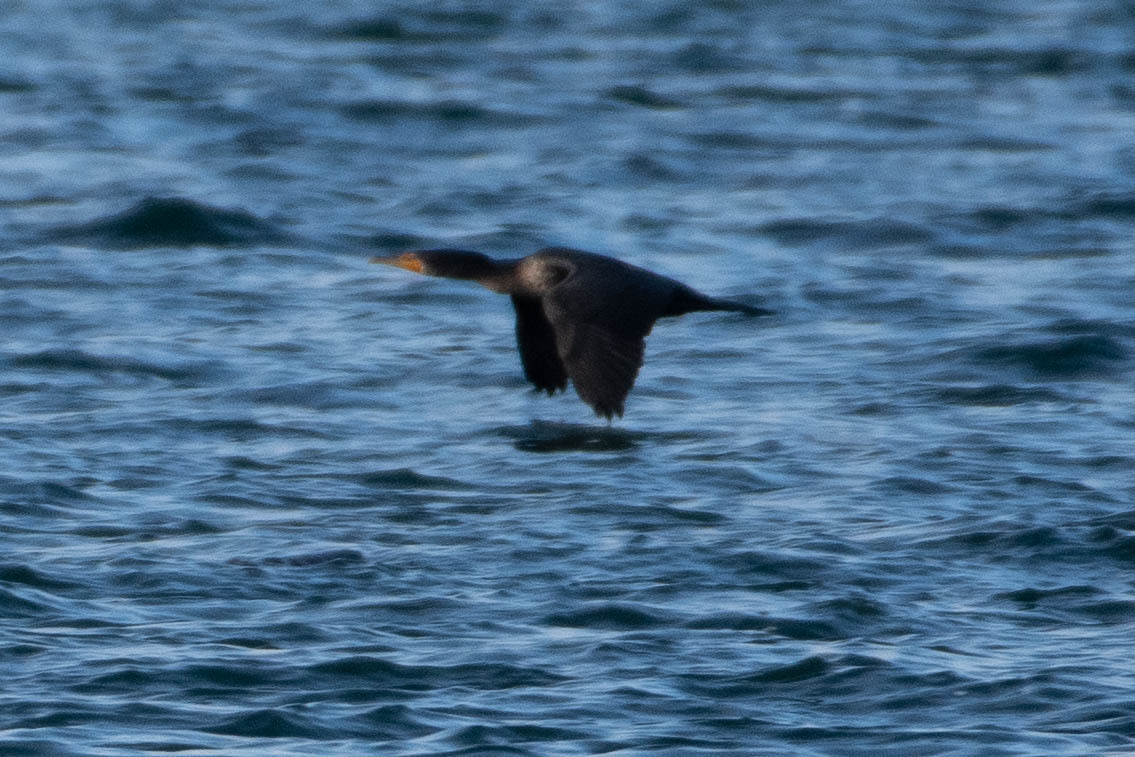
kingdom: Animalia
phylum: Chordata
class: Aves
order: Suliformes
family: Phalacrocoracidae
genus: Phalacrocorax
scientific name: Phalacrocorax auritus
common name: Double-crested cormorant
